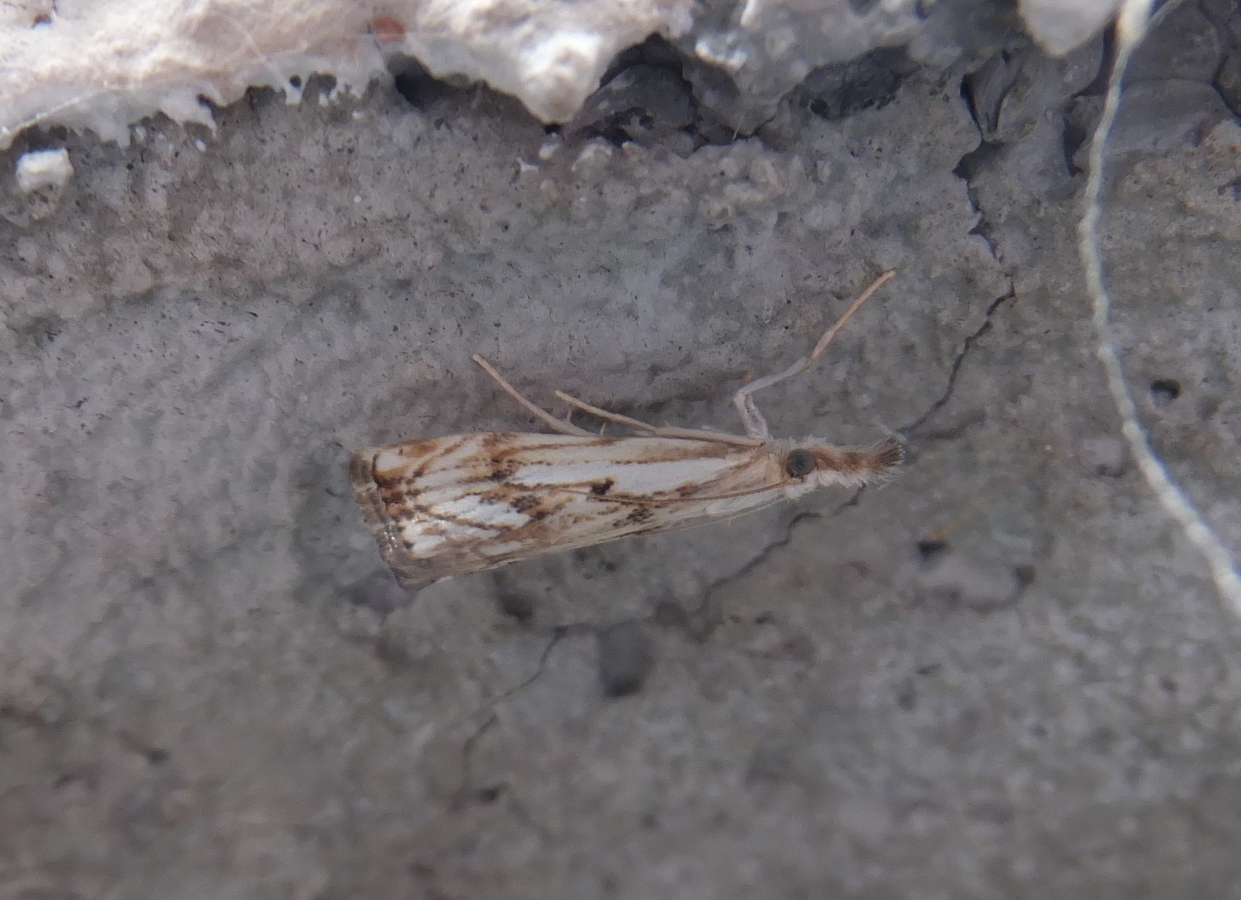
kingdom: Animalia
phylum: Arthropoda
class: Insecta
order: Lepidoptera
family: Crambidae
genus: Catoptria
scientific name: Catoptria falsella
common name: Chequered grass-veneer
